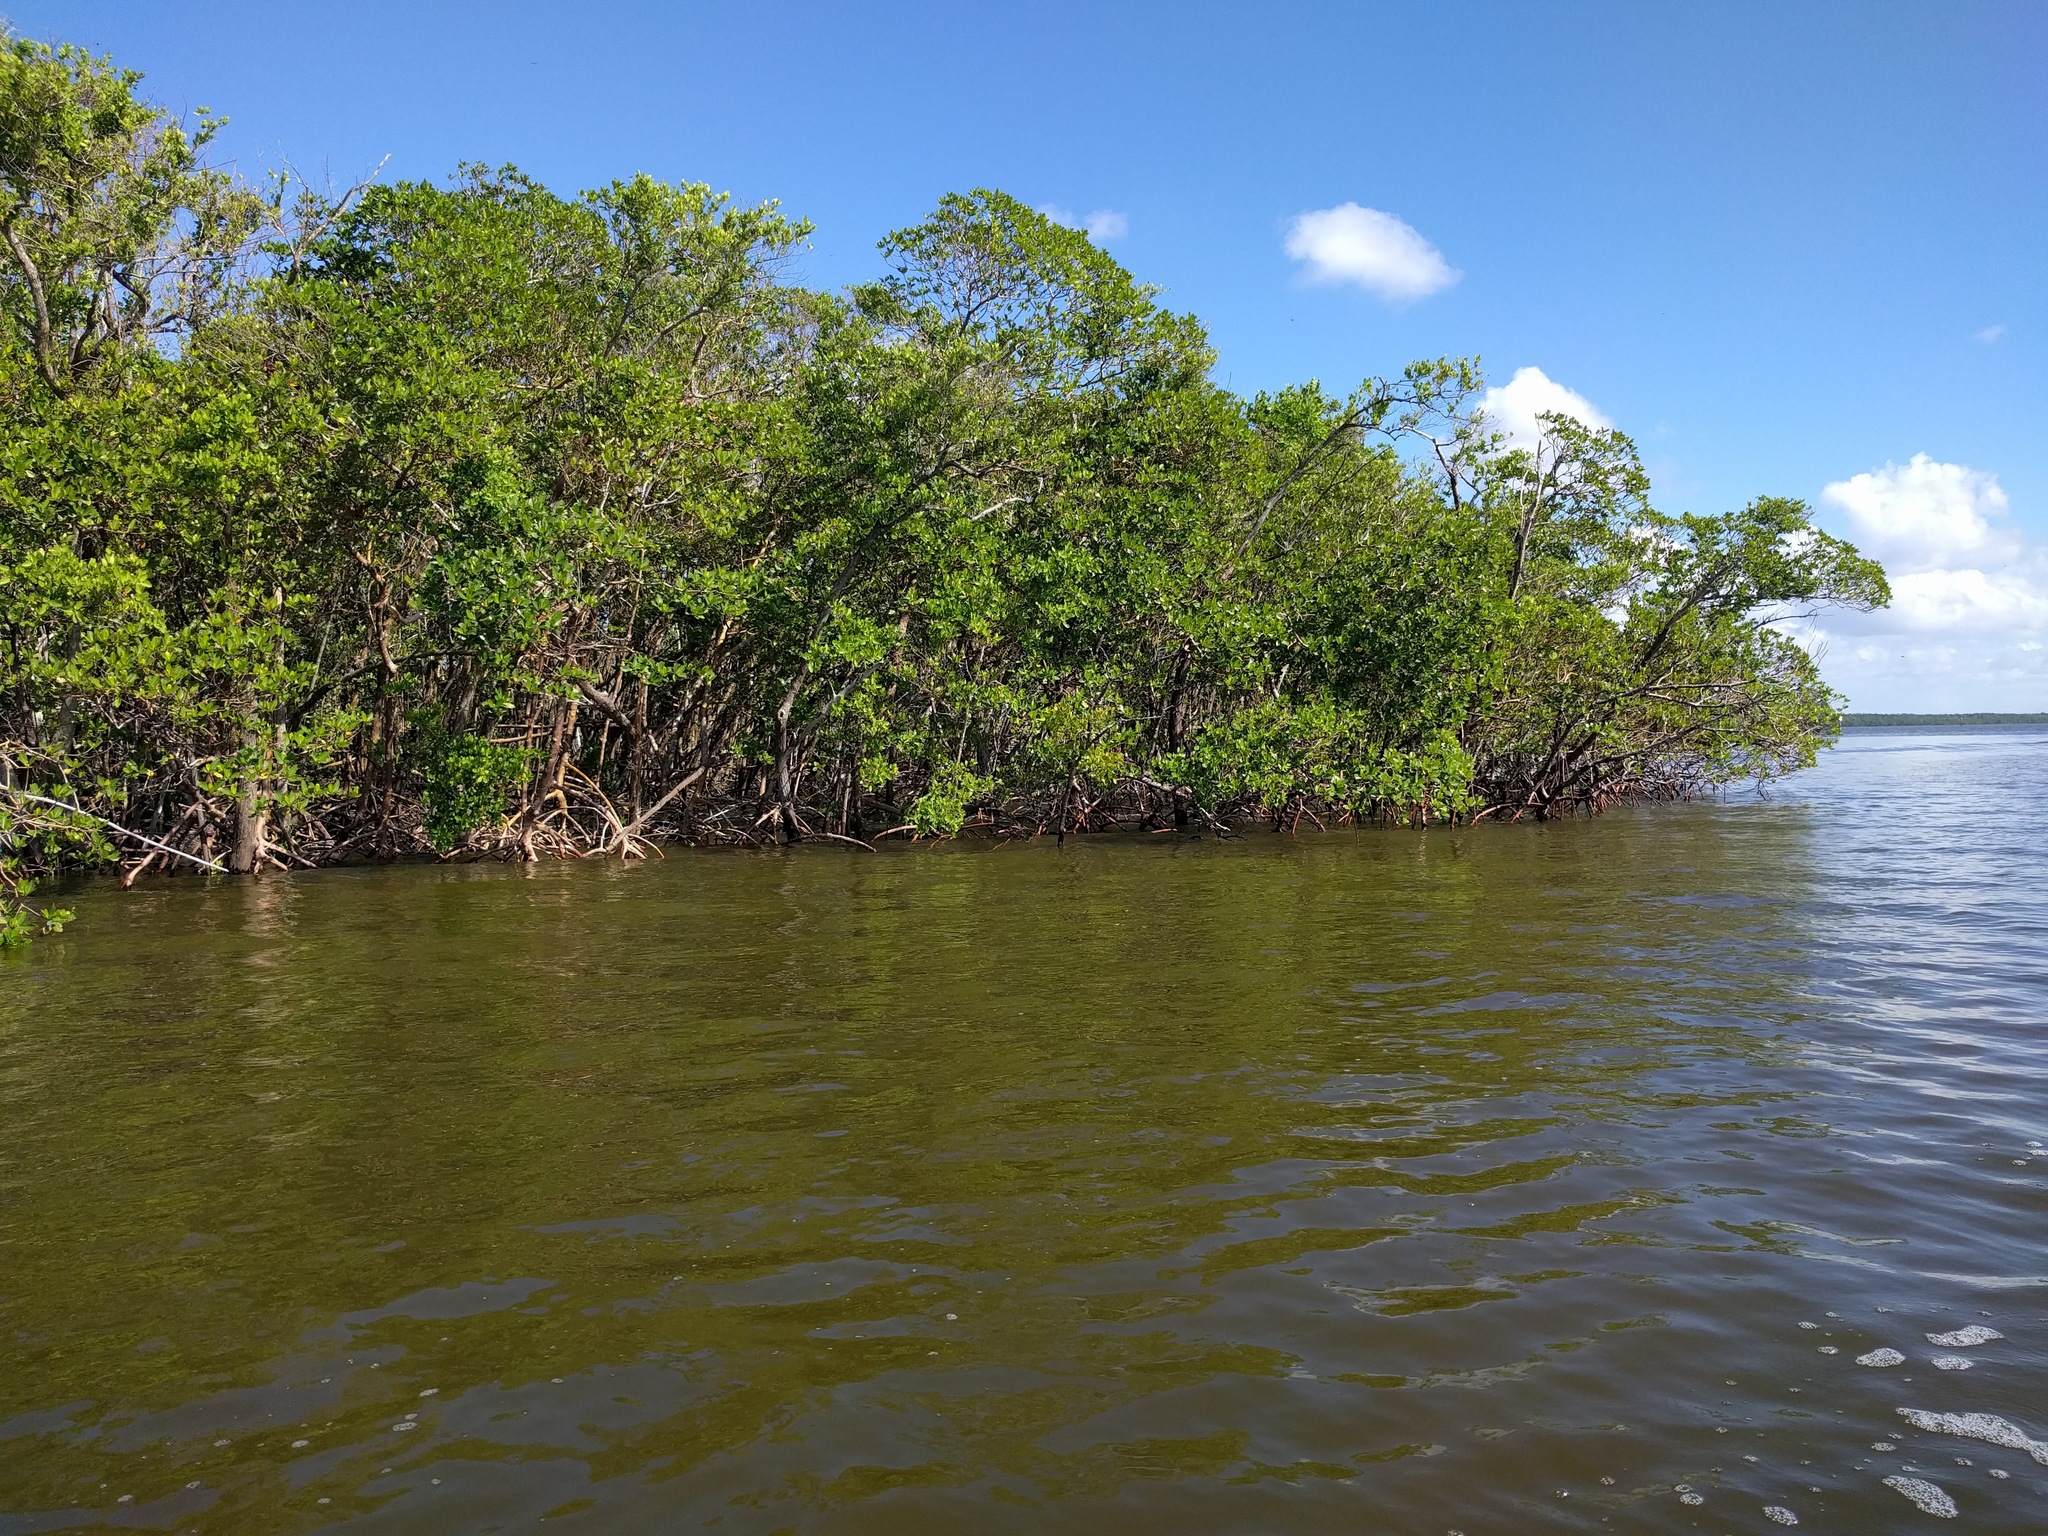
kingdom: Plantae
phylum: Tracheophyta
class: Magnoliopsida
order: Malpighiales
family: Rhizophoraceae
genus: Rhizophora
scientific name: Rhizophora mangle
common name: Red mangrove
